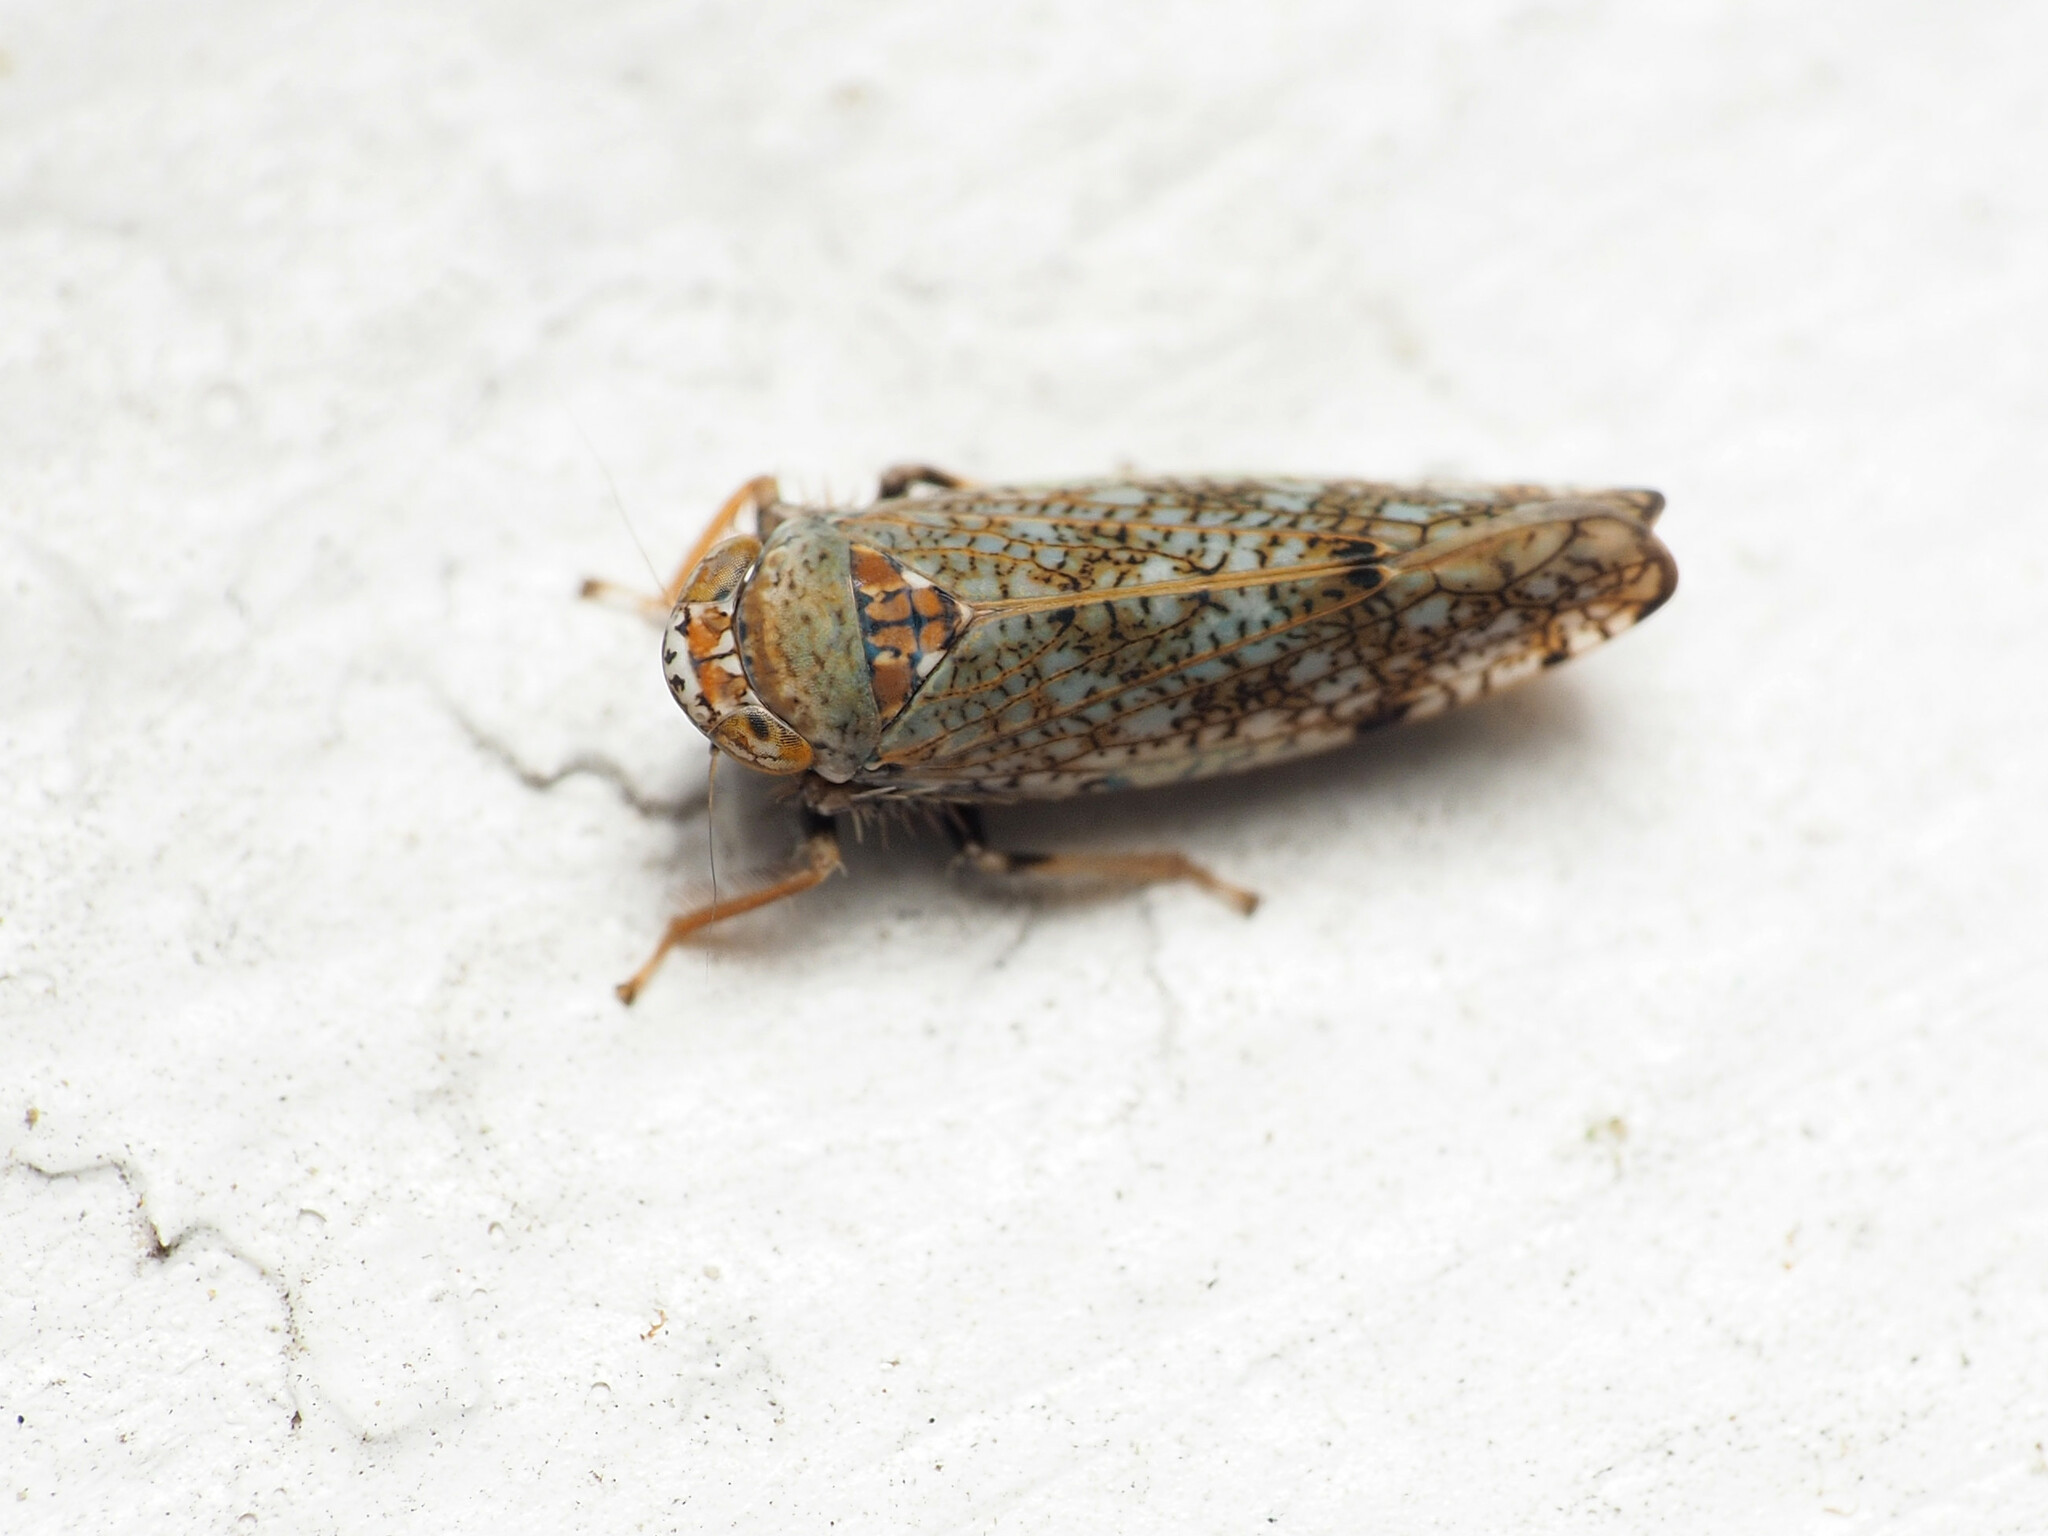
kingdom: Animalia
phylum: Arthropoda
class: Insecta
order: Hemiptera
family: Cicadellidae
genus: Orientus
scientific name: Orientus ishidae
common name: Japanese leafhopper
